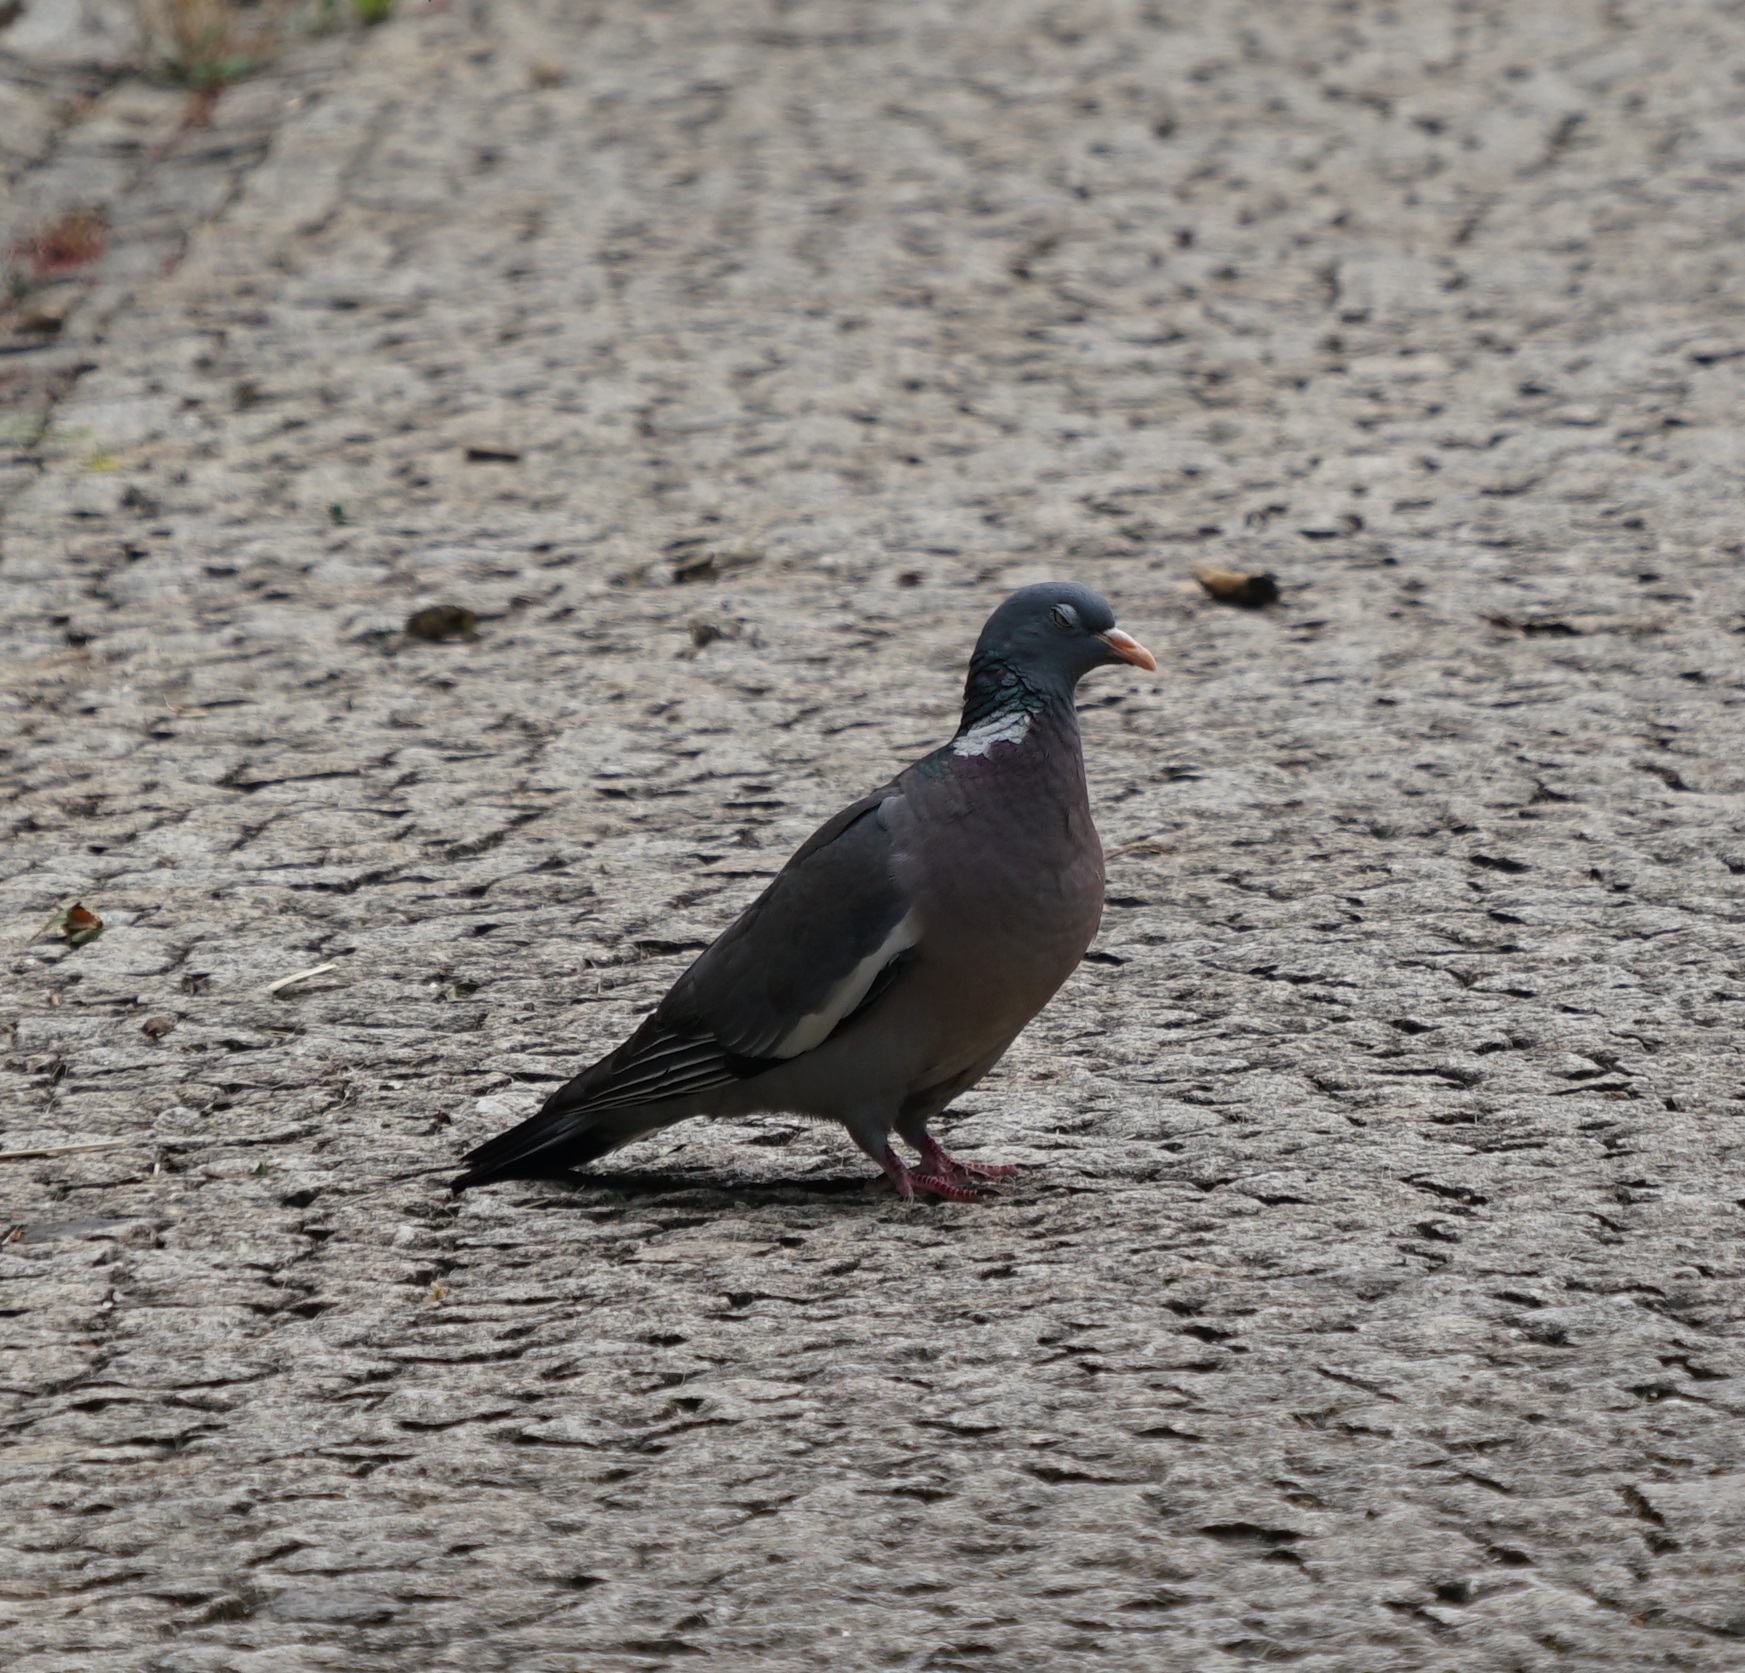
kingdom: Animalia
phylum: Chordata
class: Aves
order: Columbiformes
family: Columbidae
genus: Columba
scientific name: Columba palumbus
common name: Common wood pigeon
